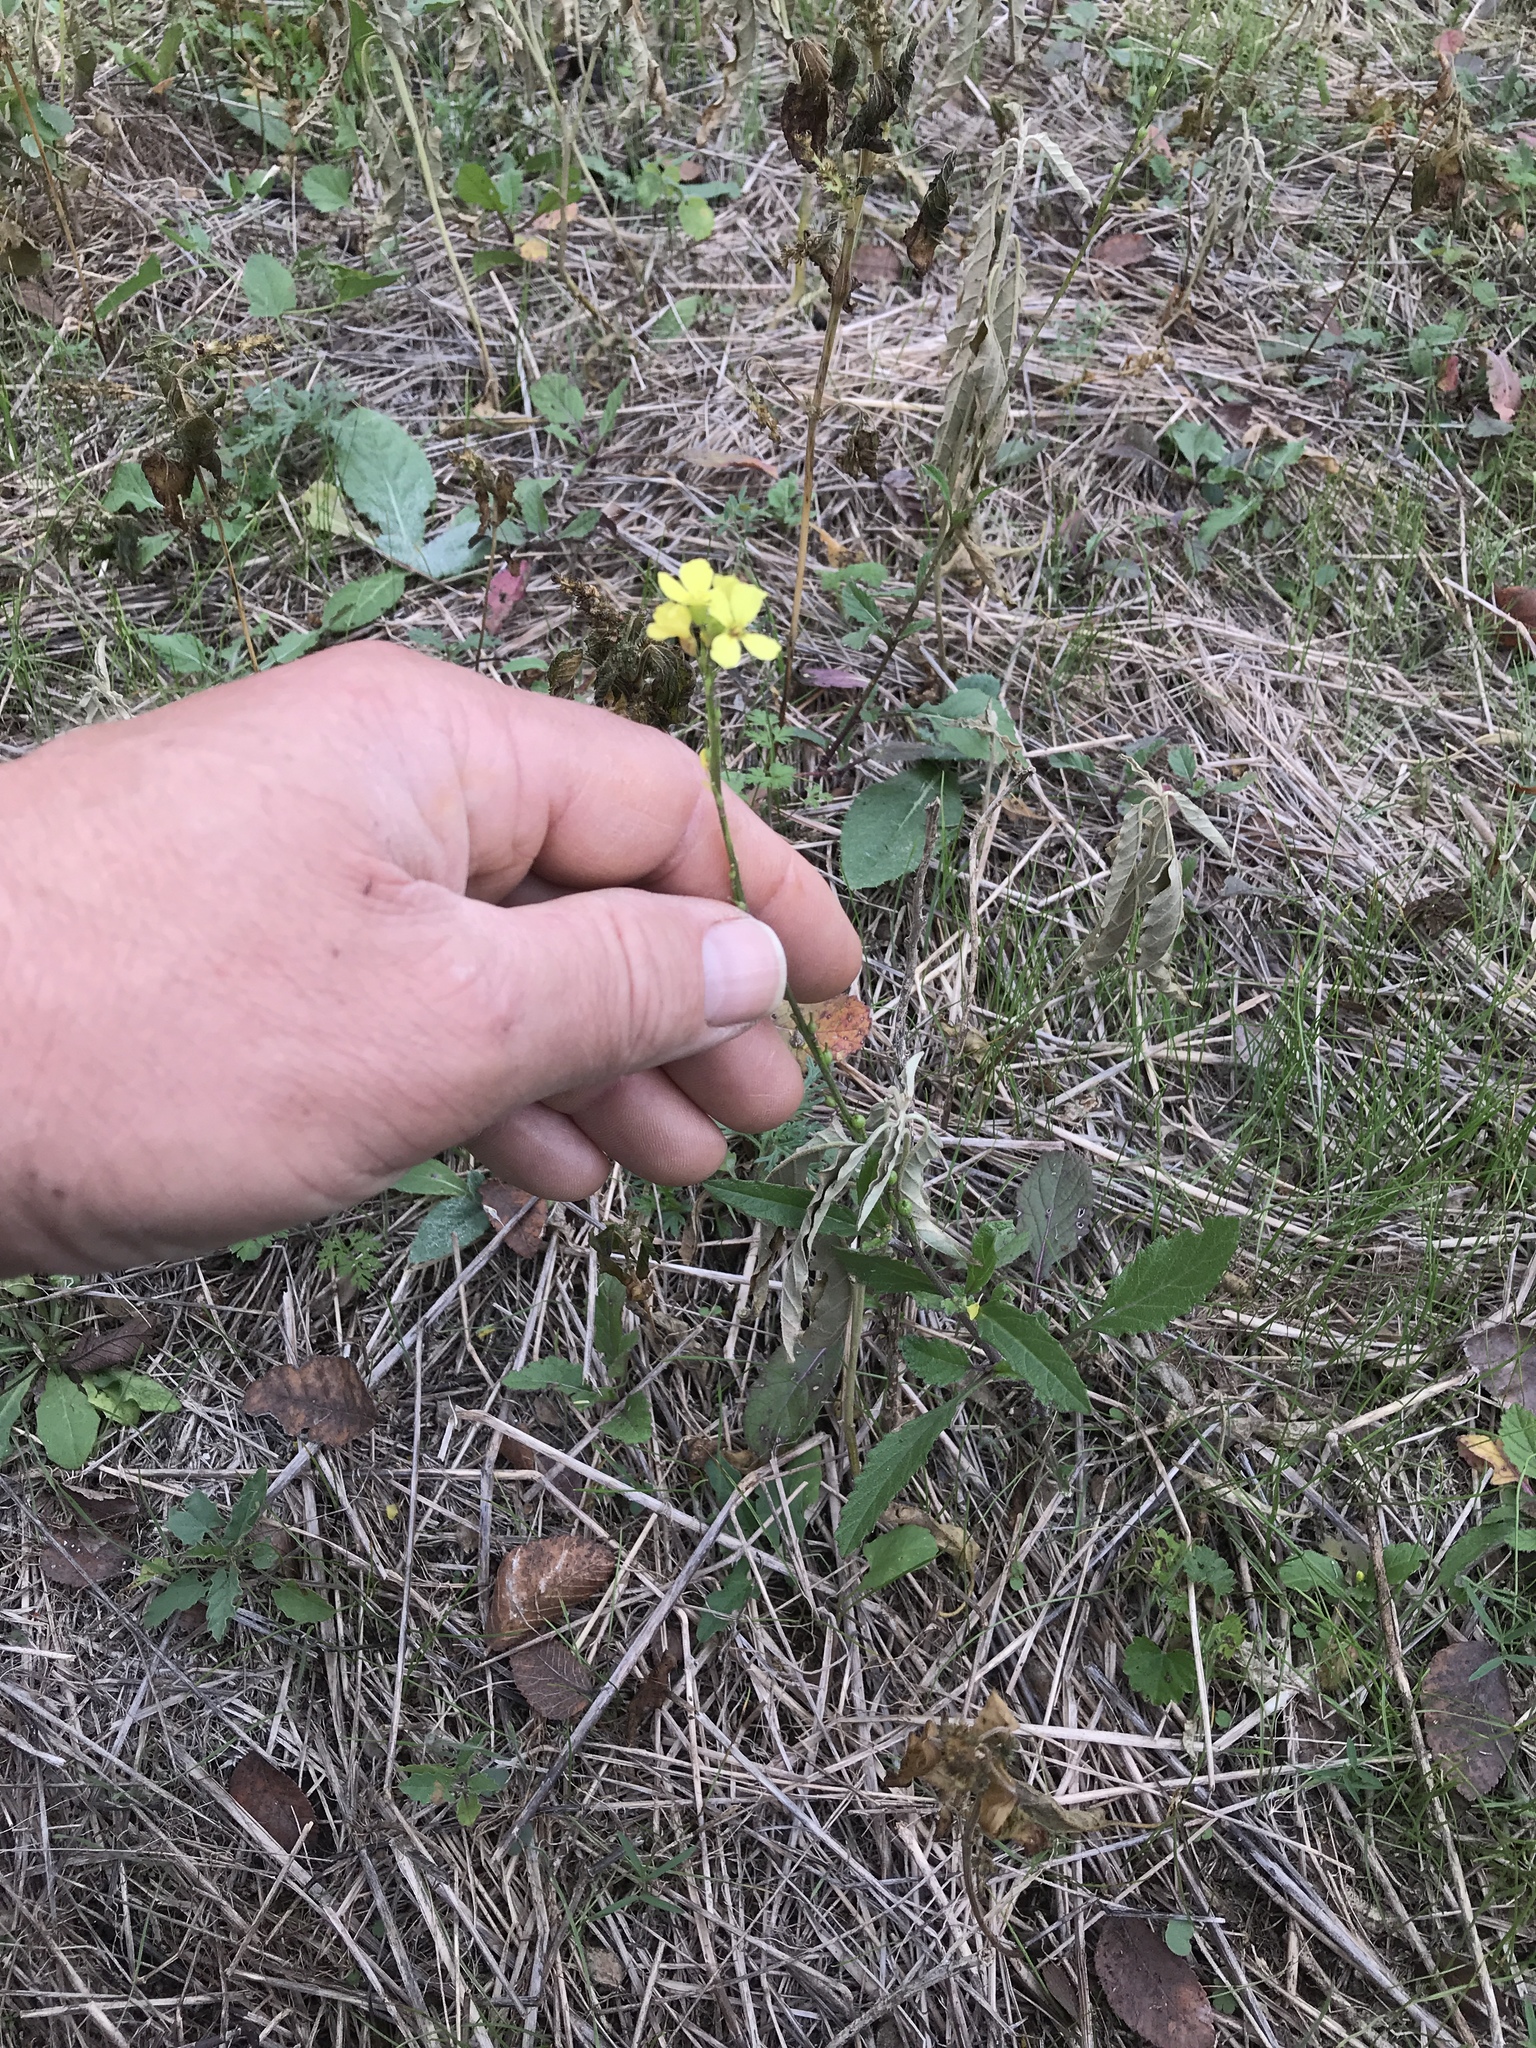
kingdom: Plantae
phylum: Tracheophyta
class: Magnoliopsida
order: Brassicales
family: Brassicaceae
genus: Rapistrum
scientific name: Rapistrum rugosum
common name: Annual bastardcabbage
